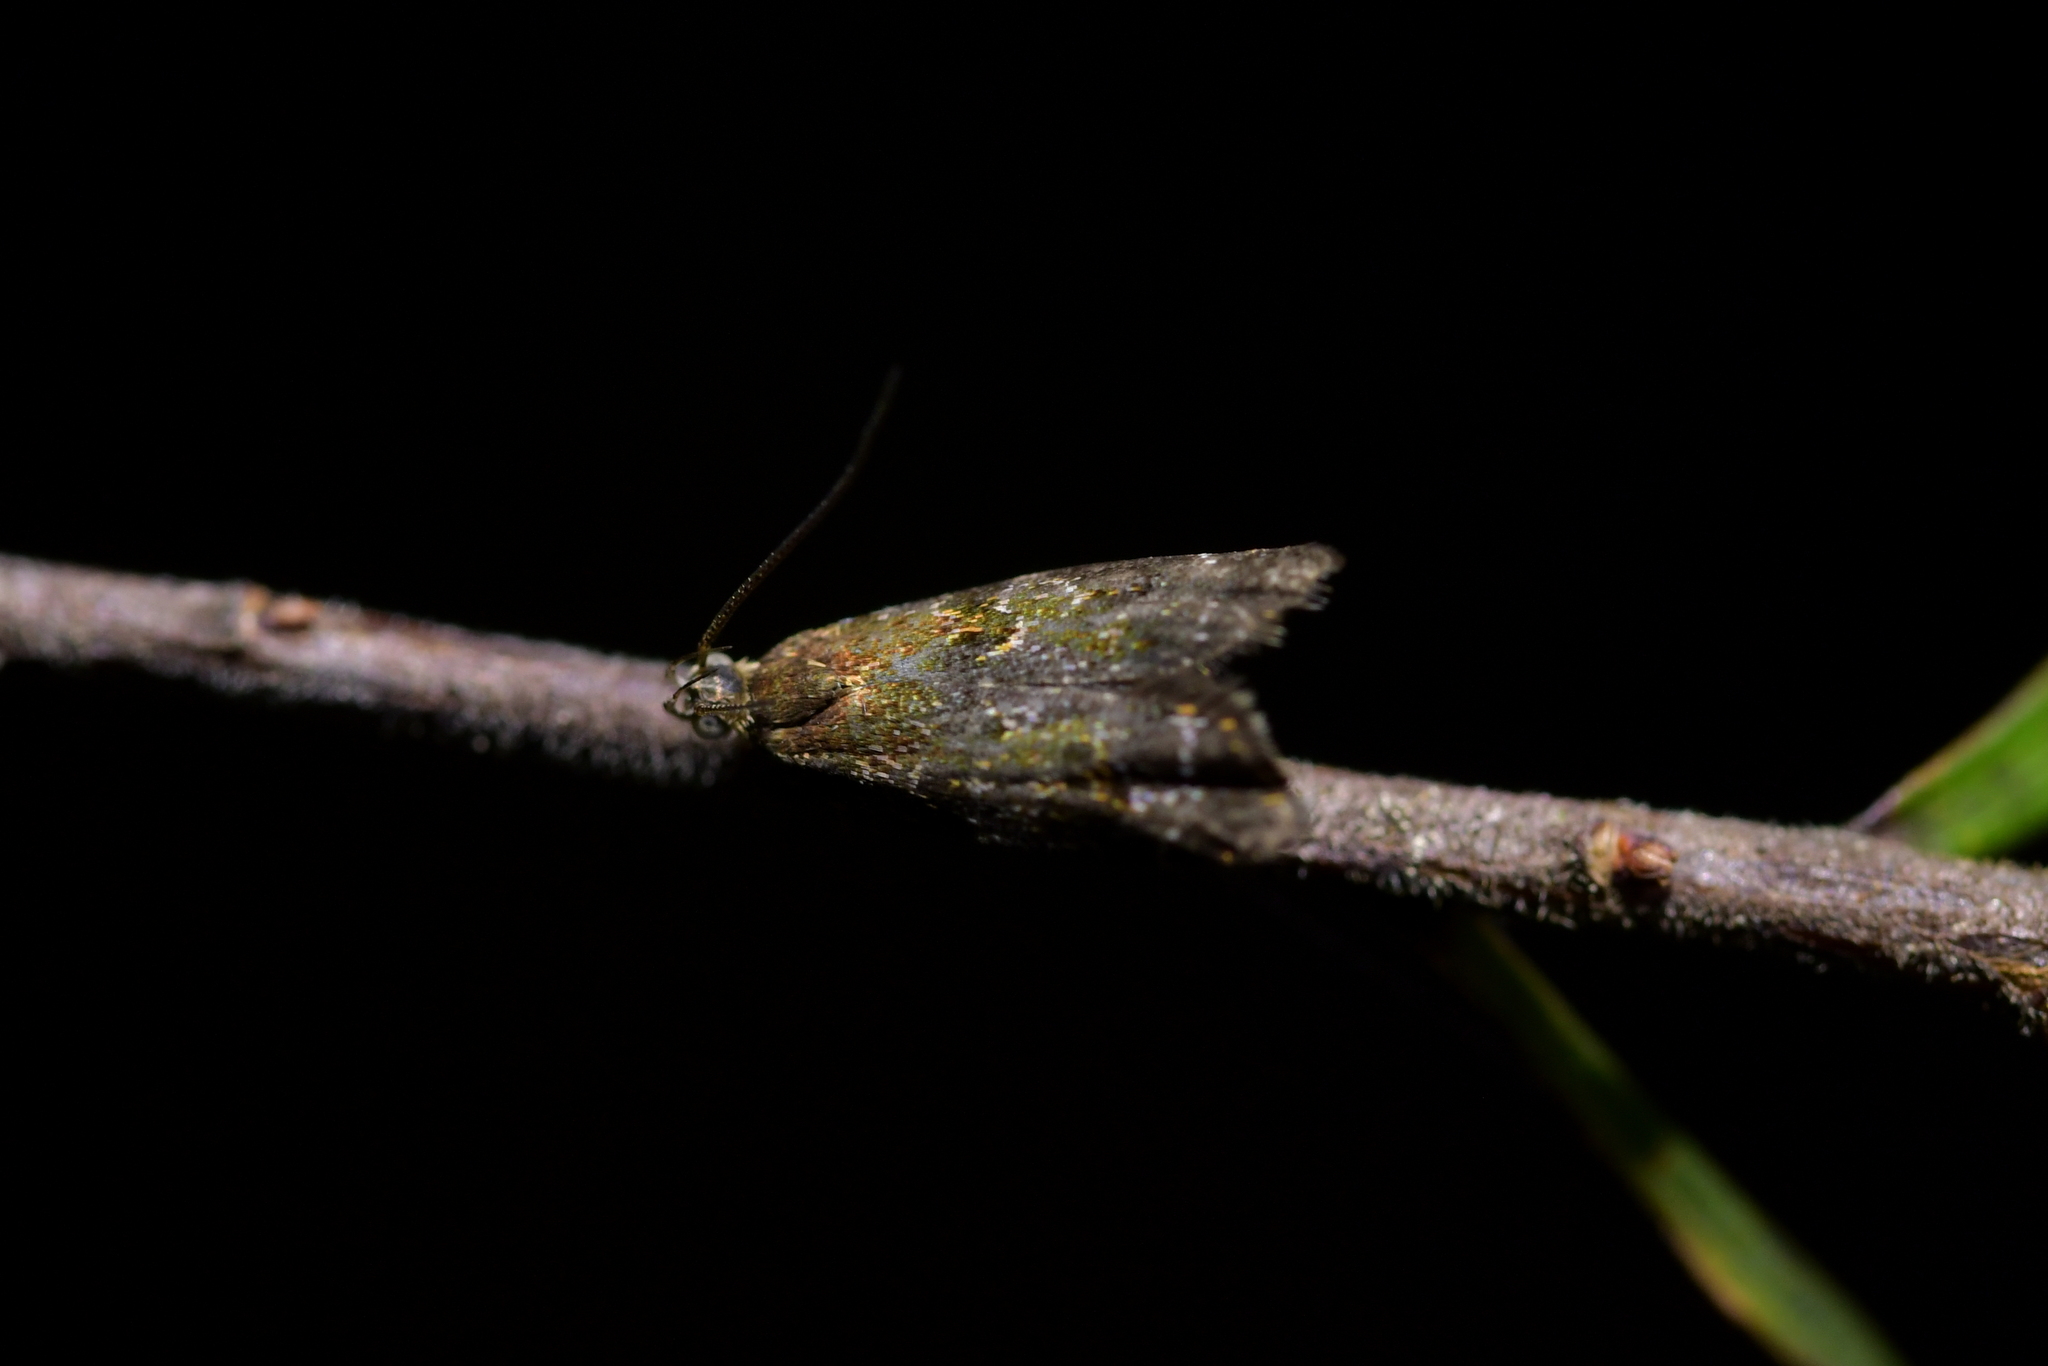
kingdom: Animalia
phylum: Arthropoda
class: Insecta
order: Lepidoptera
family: Oecophoridae
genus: Gymnobathra
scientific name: Gymnobathra omphalota
